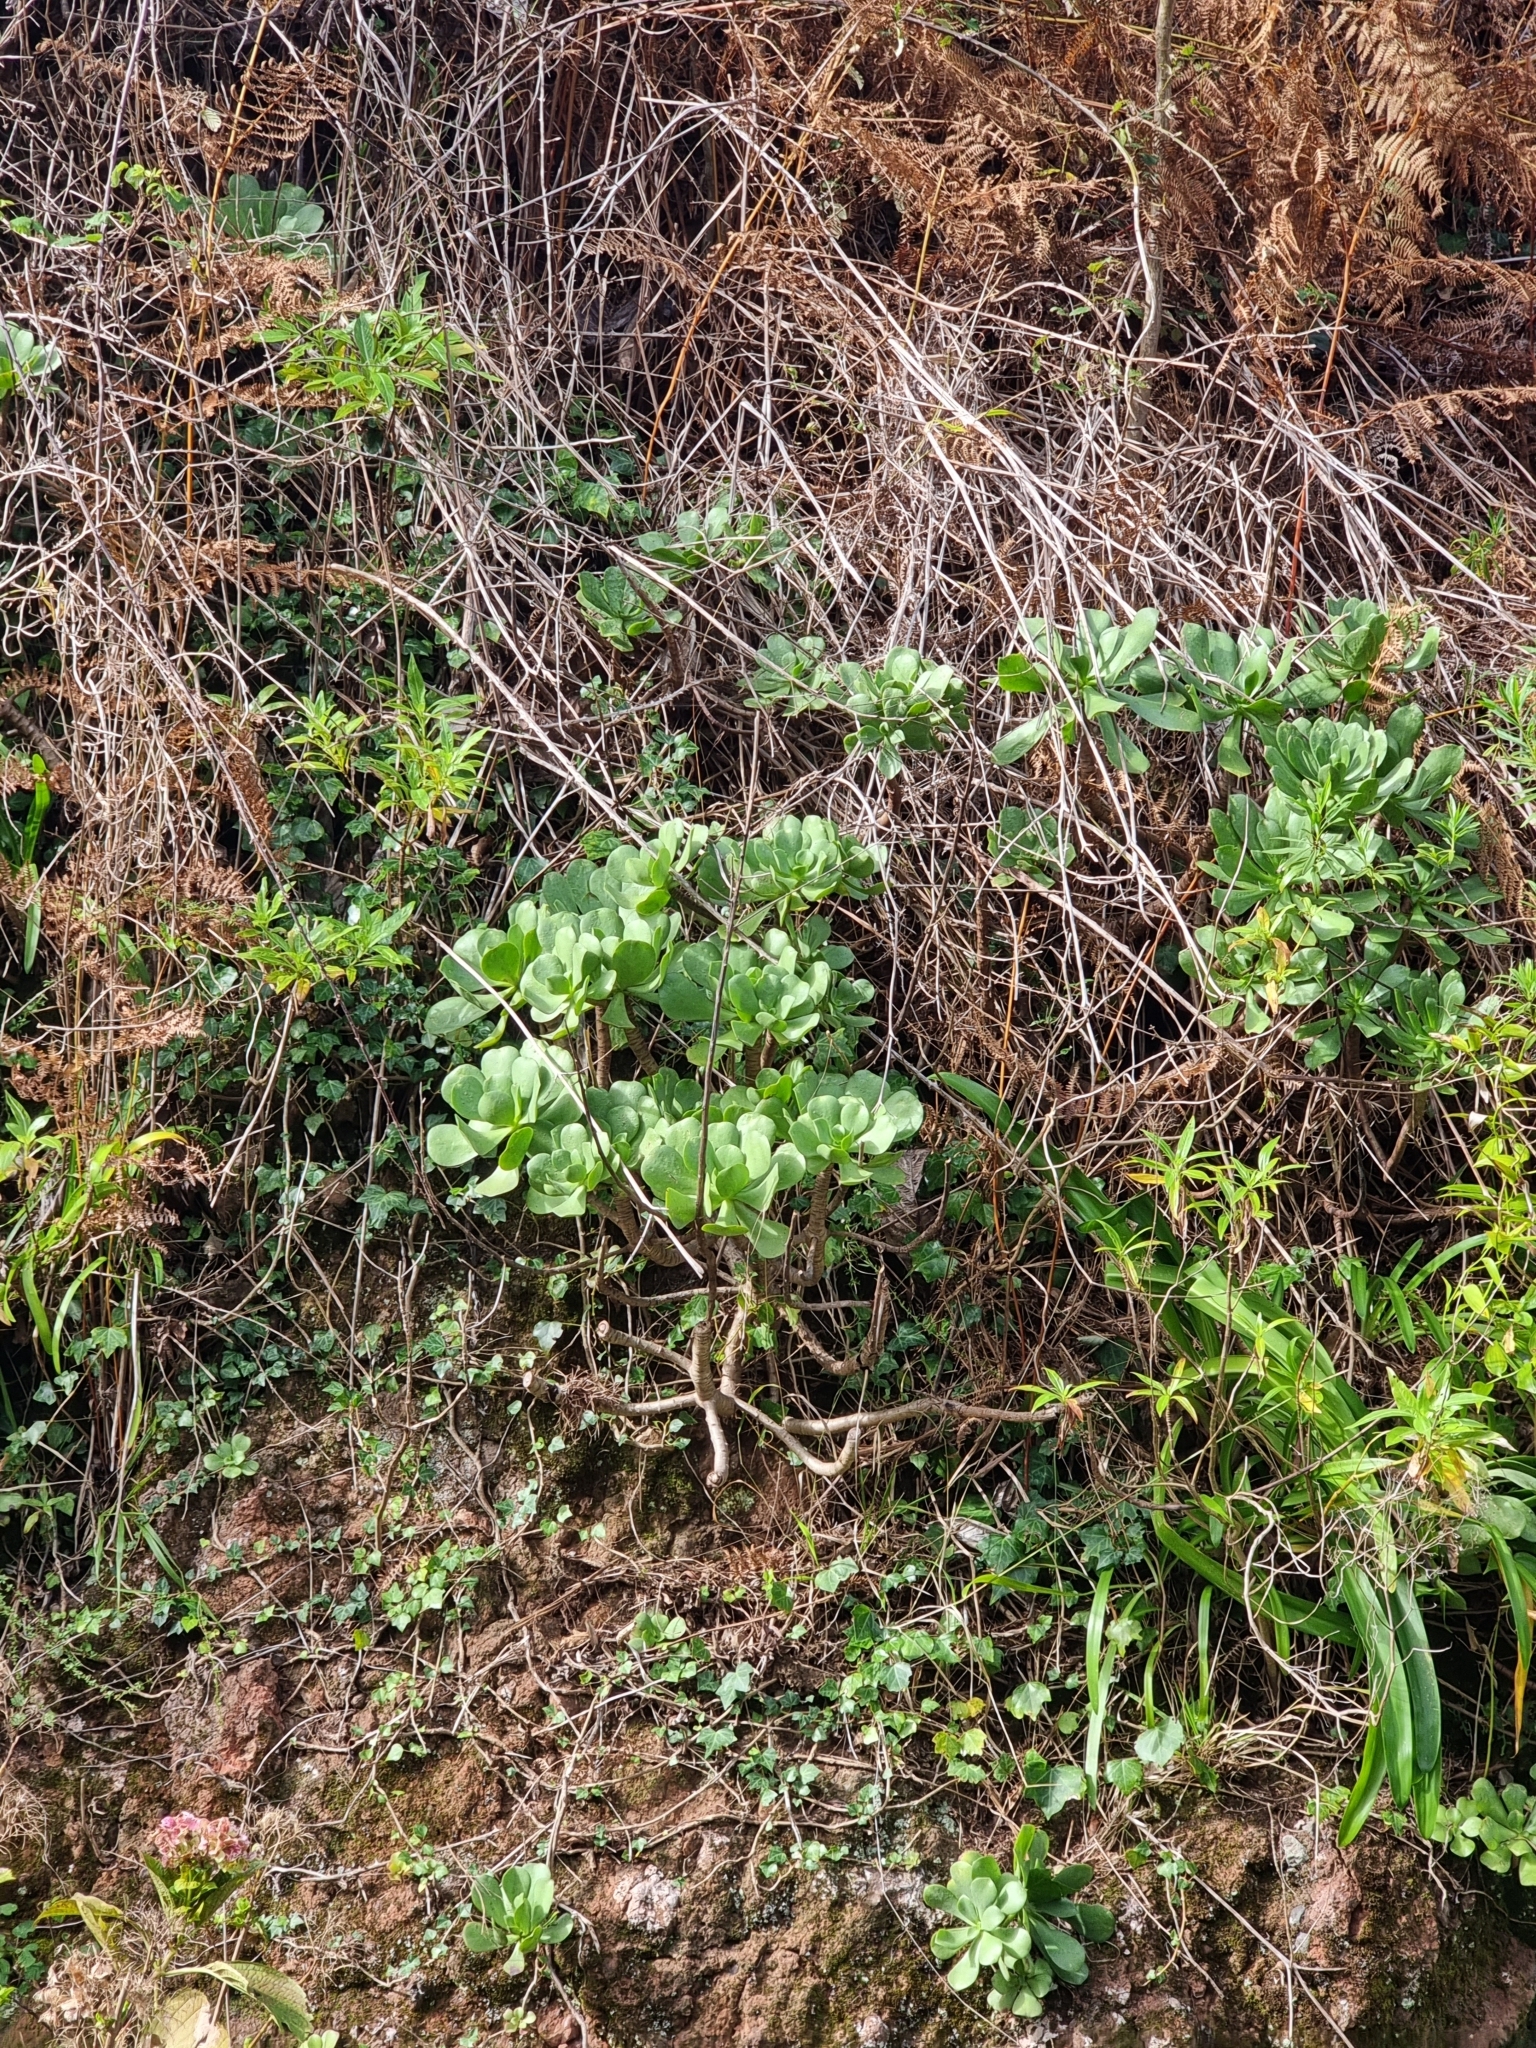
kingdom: Plantae
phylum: Tracheophyta
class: Magnoliopsida
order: Saxifragales
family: Crassulaceae
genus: Aeonium
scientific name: Aeonium glutinosum
